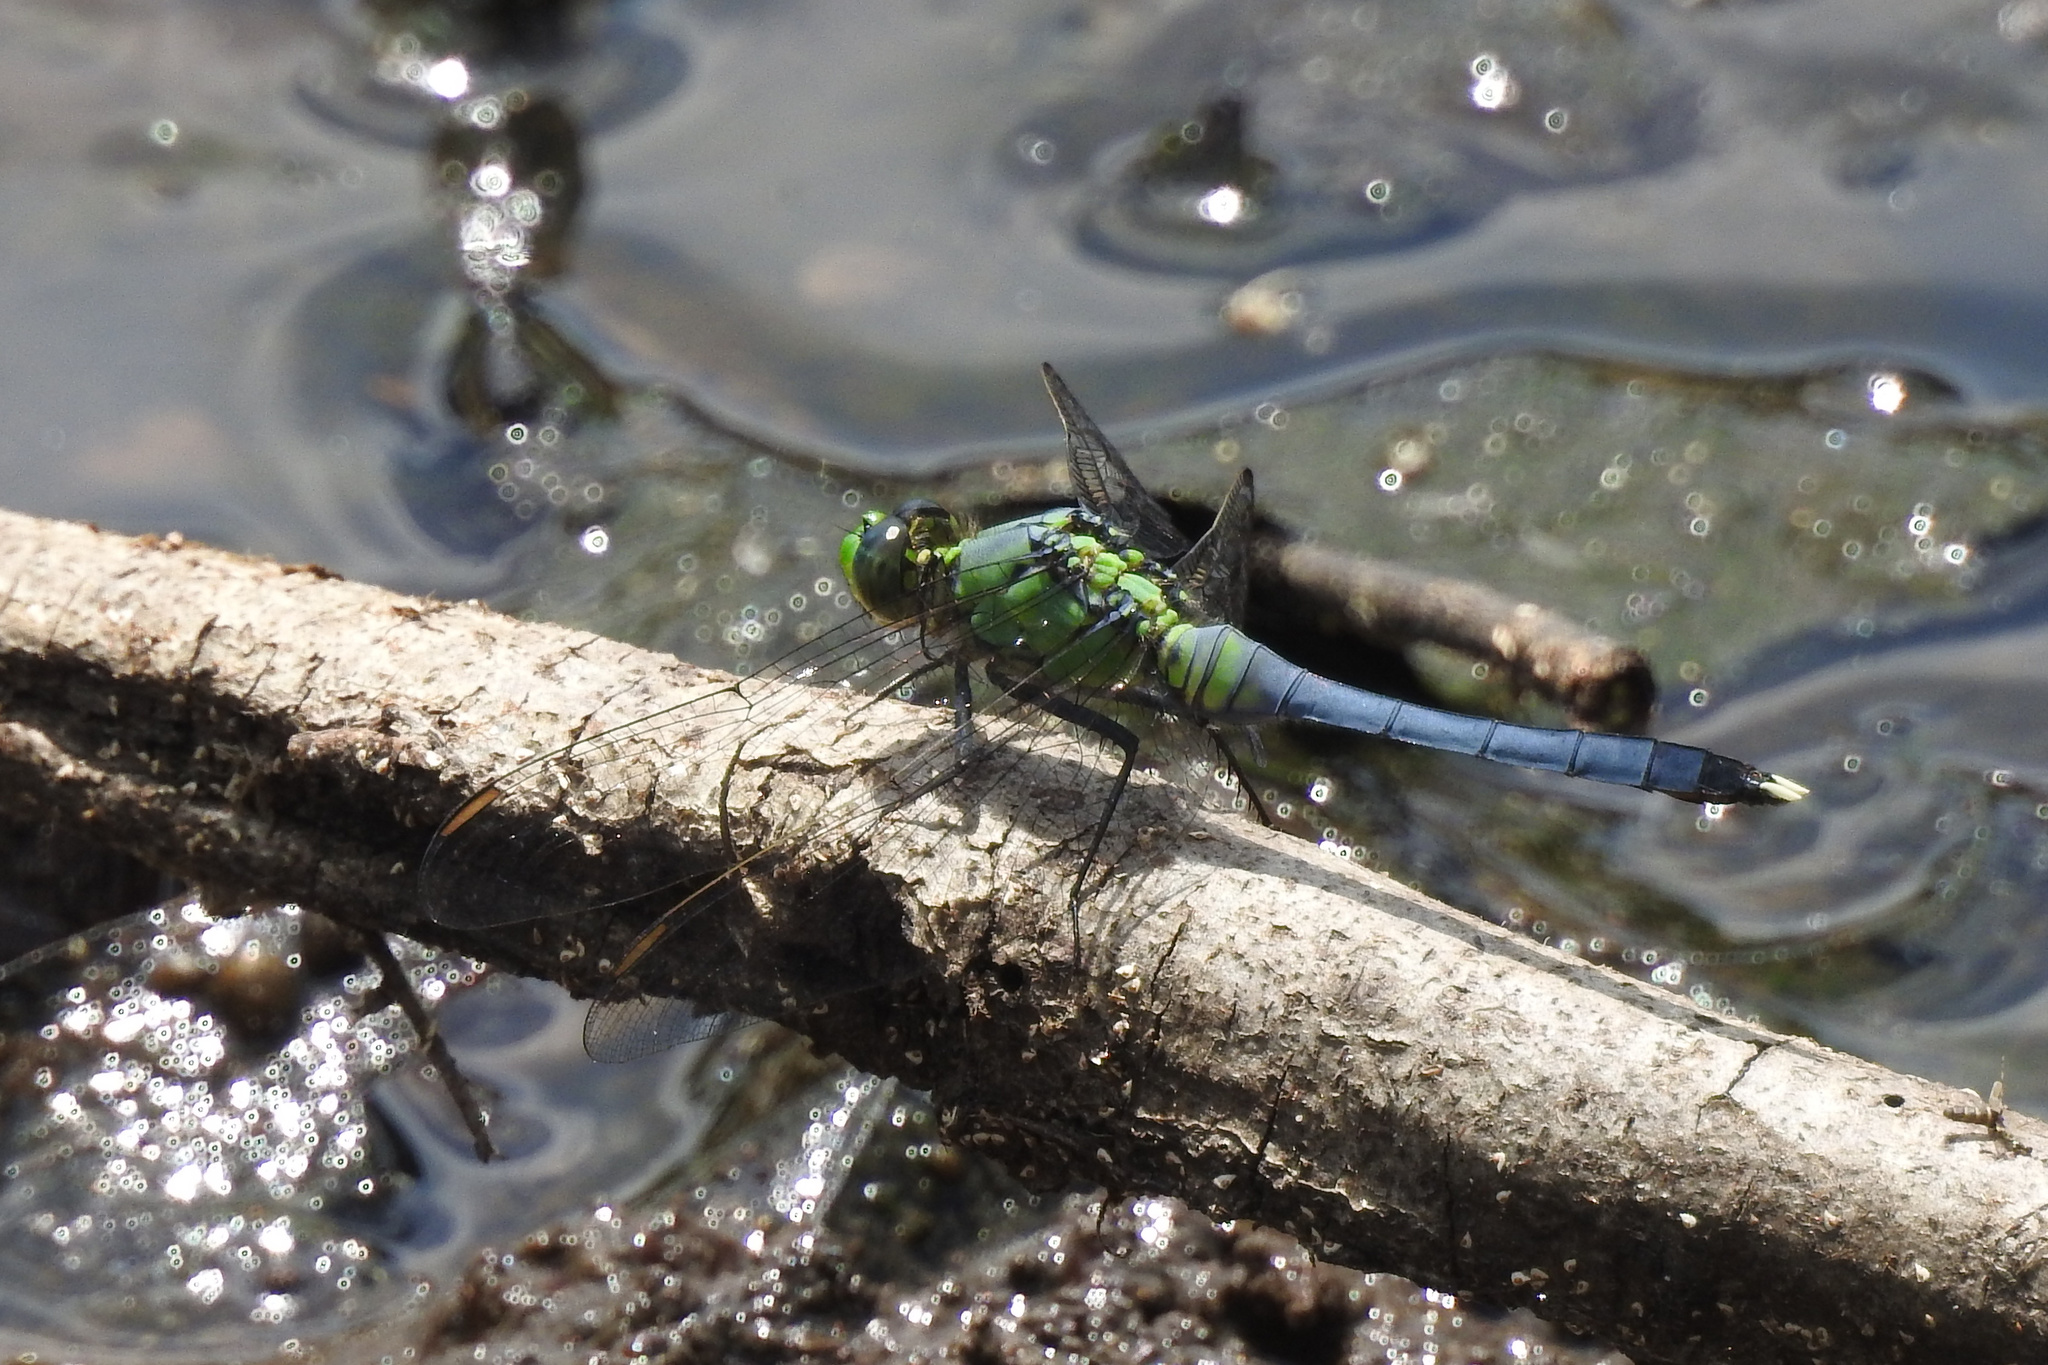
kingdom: Animalia
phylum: Arthropoda
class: Insecta
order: Odonata
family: Libellulidae
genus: Erythemis
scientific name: Erythemis simplicicollis
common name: Eastern pondhawk
